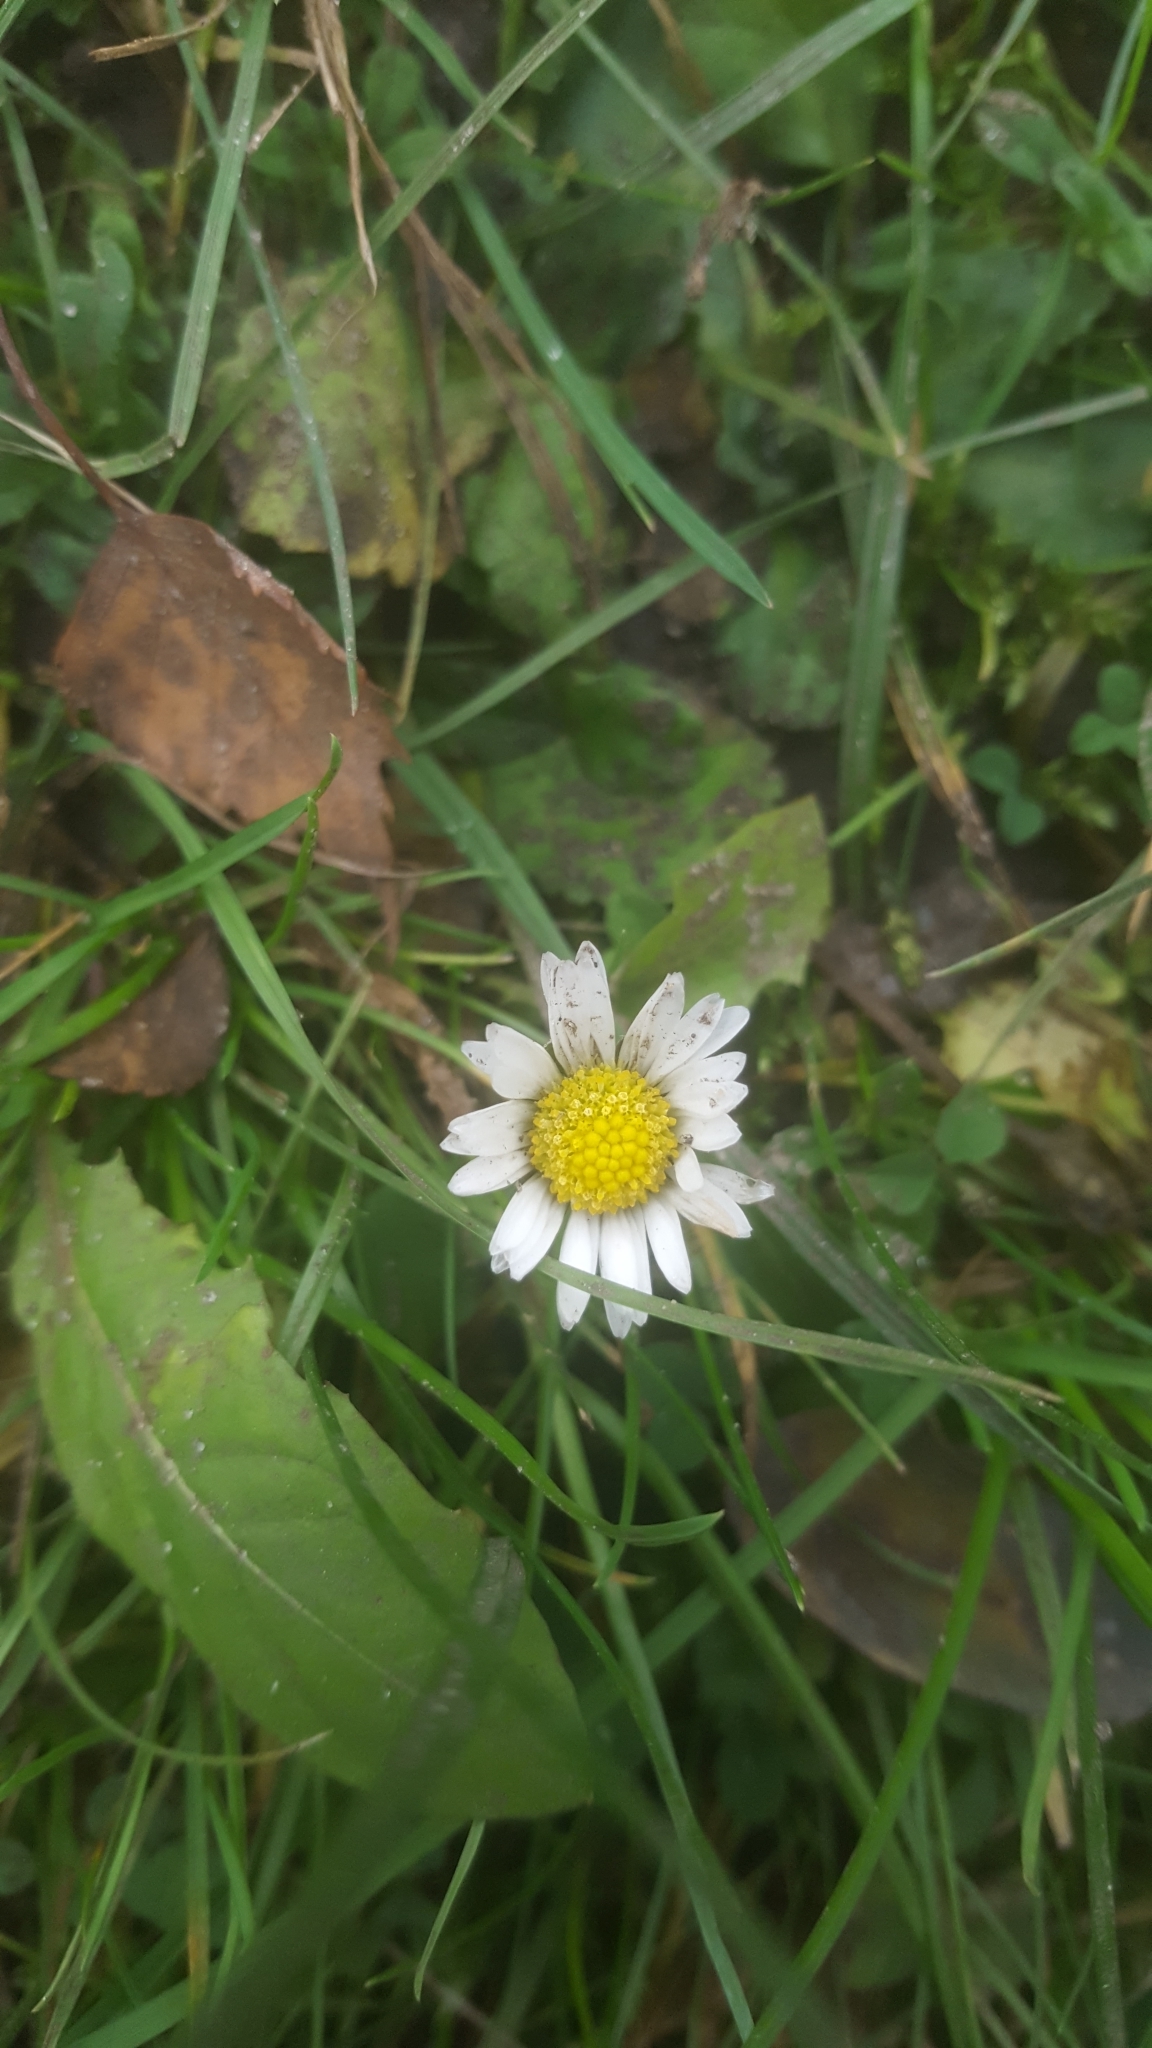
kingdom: Plantae
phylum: Tracheophyta
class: Magnoliopsida
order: Asterales
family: Asteraceae
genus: Bellis
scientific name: Bellis perennis
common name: Lawndaisy
